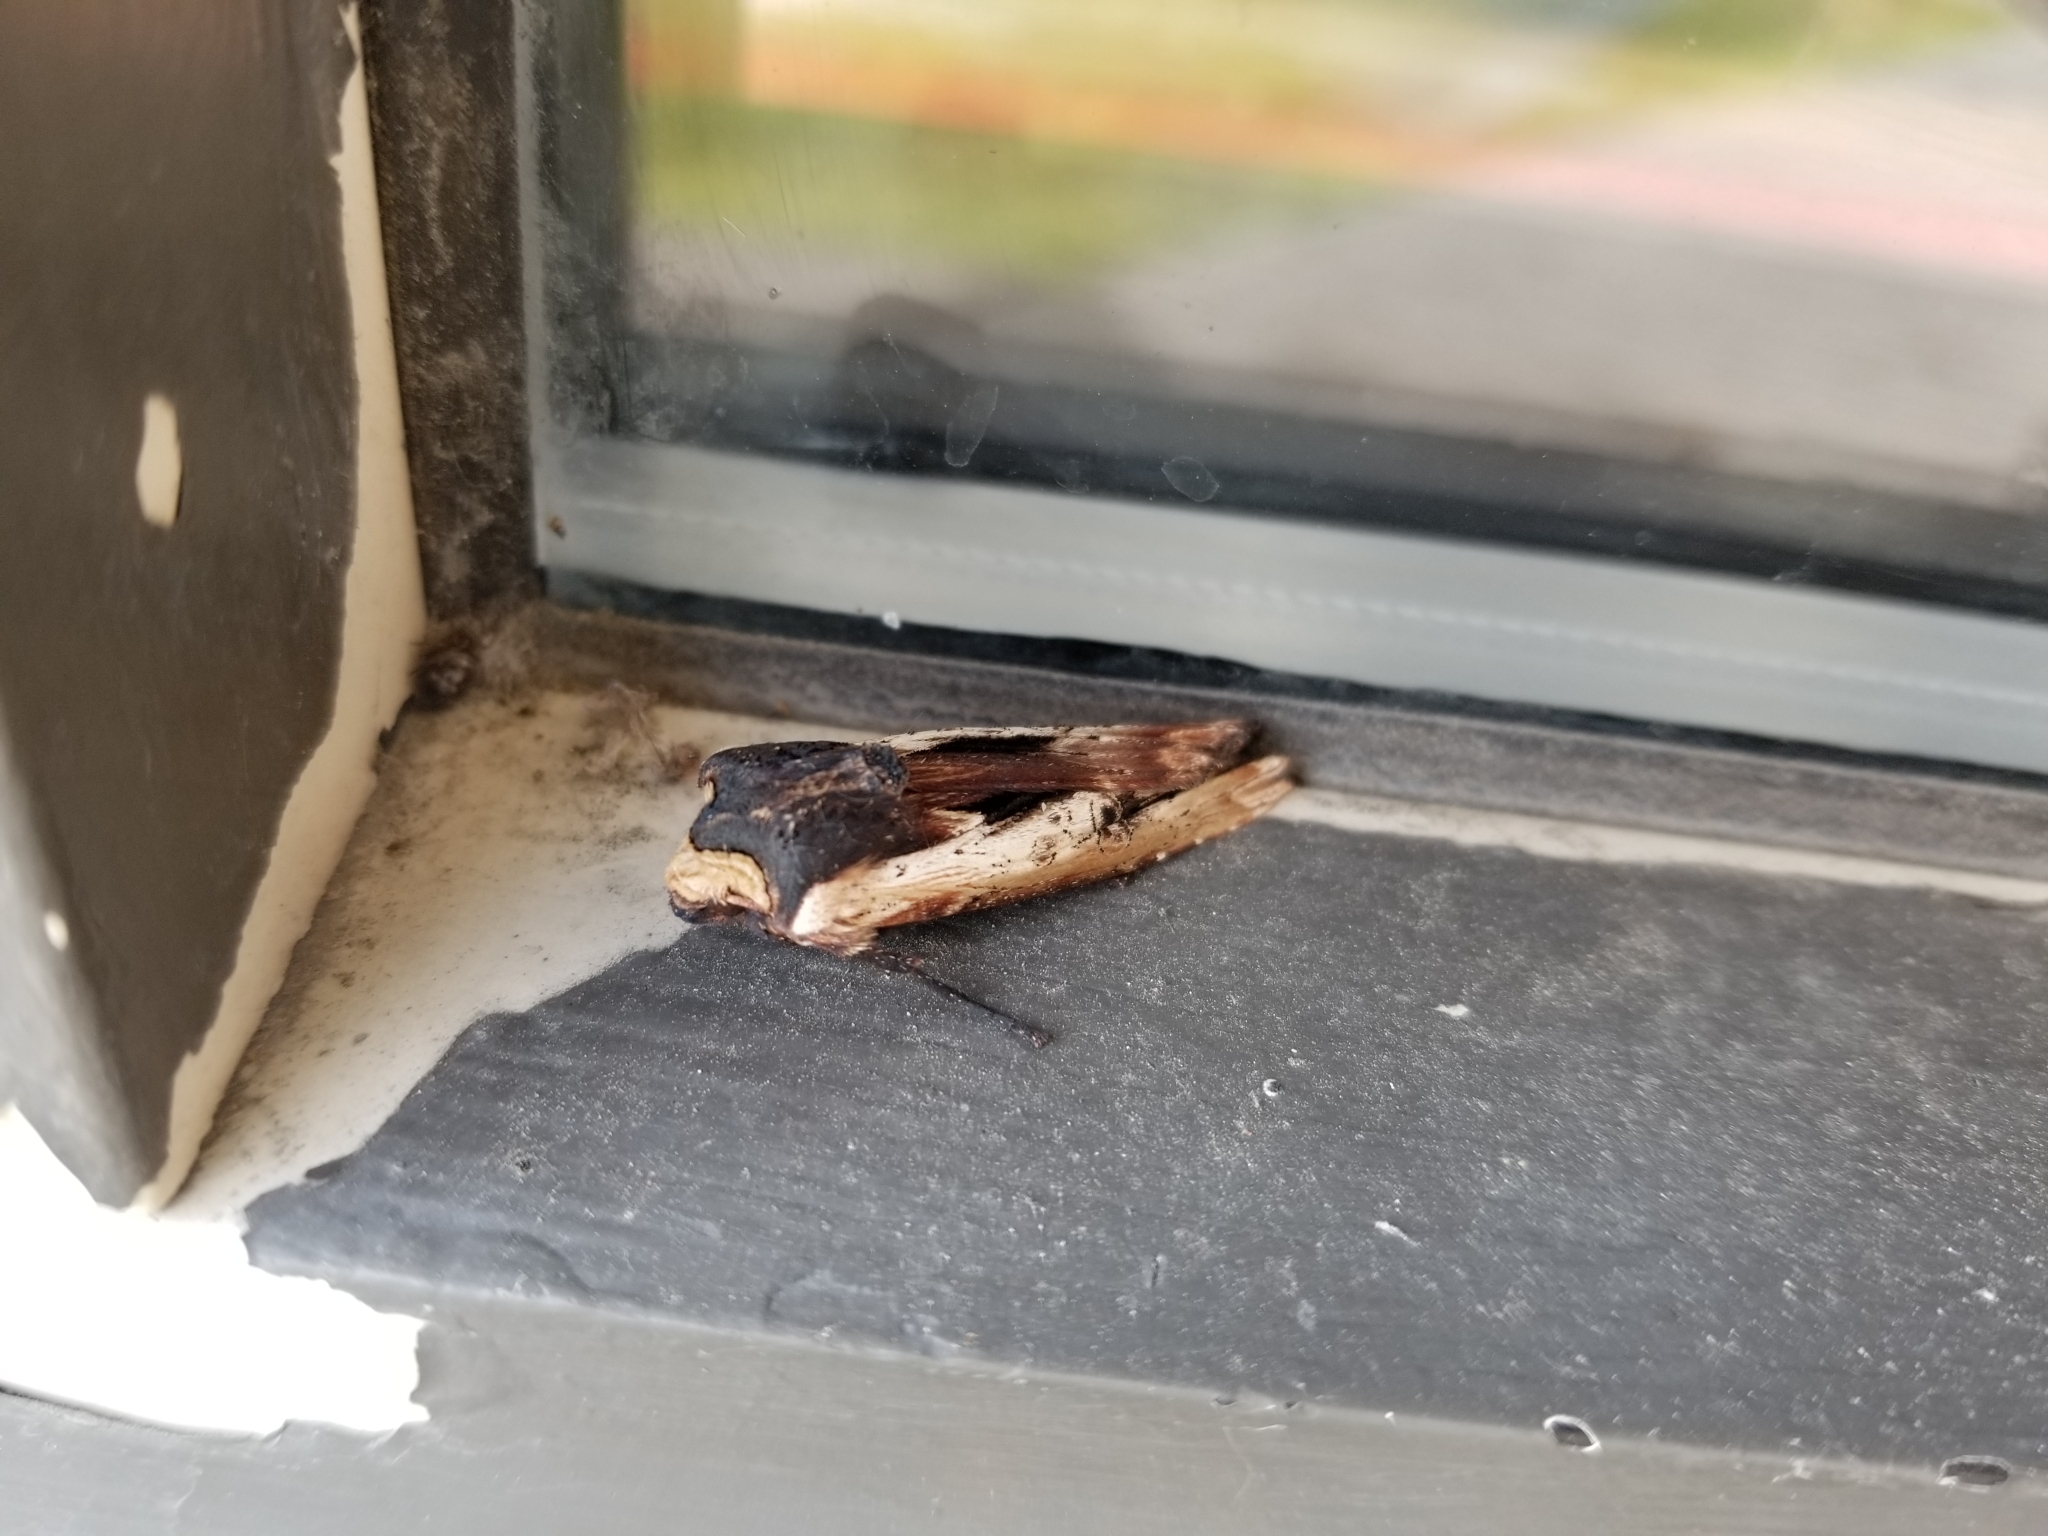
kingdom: Animalia
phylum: Arthropoda
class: Insecta
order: Lepidoptera
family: Noctuidae
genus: Xylena
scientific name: Xylena nupera
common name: American swordgrass moth
